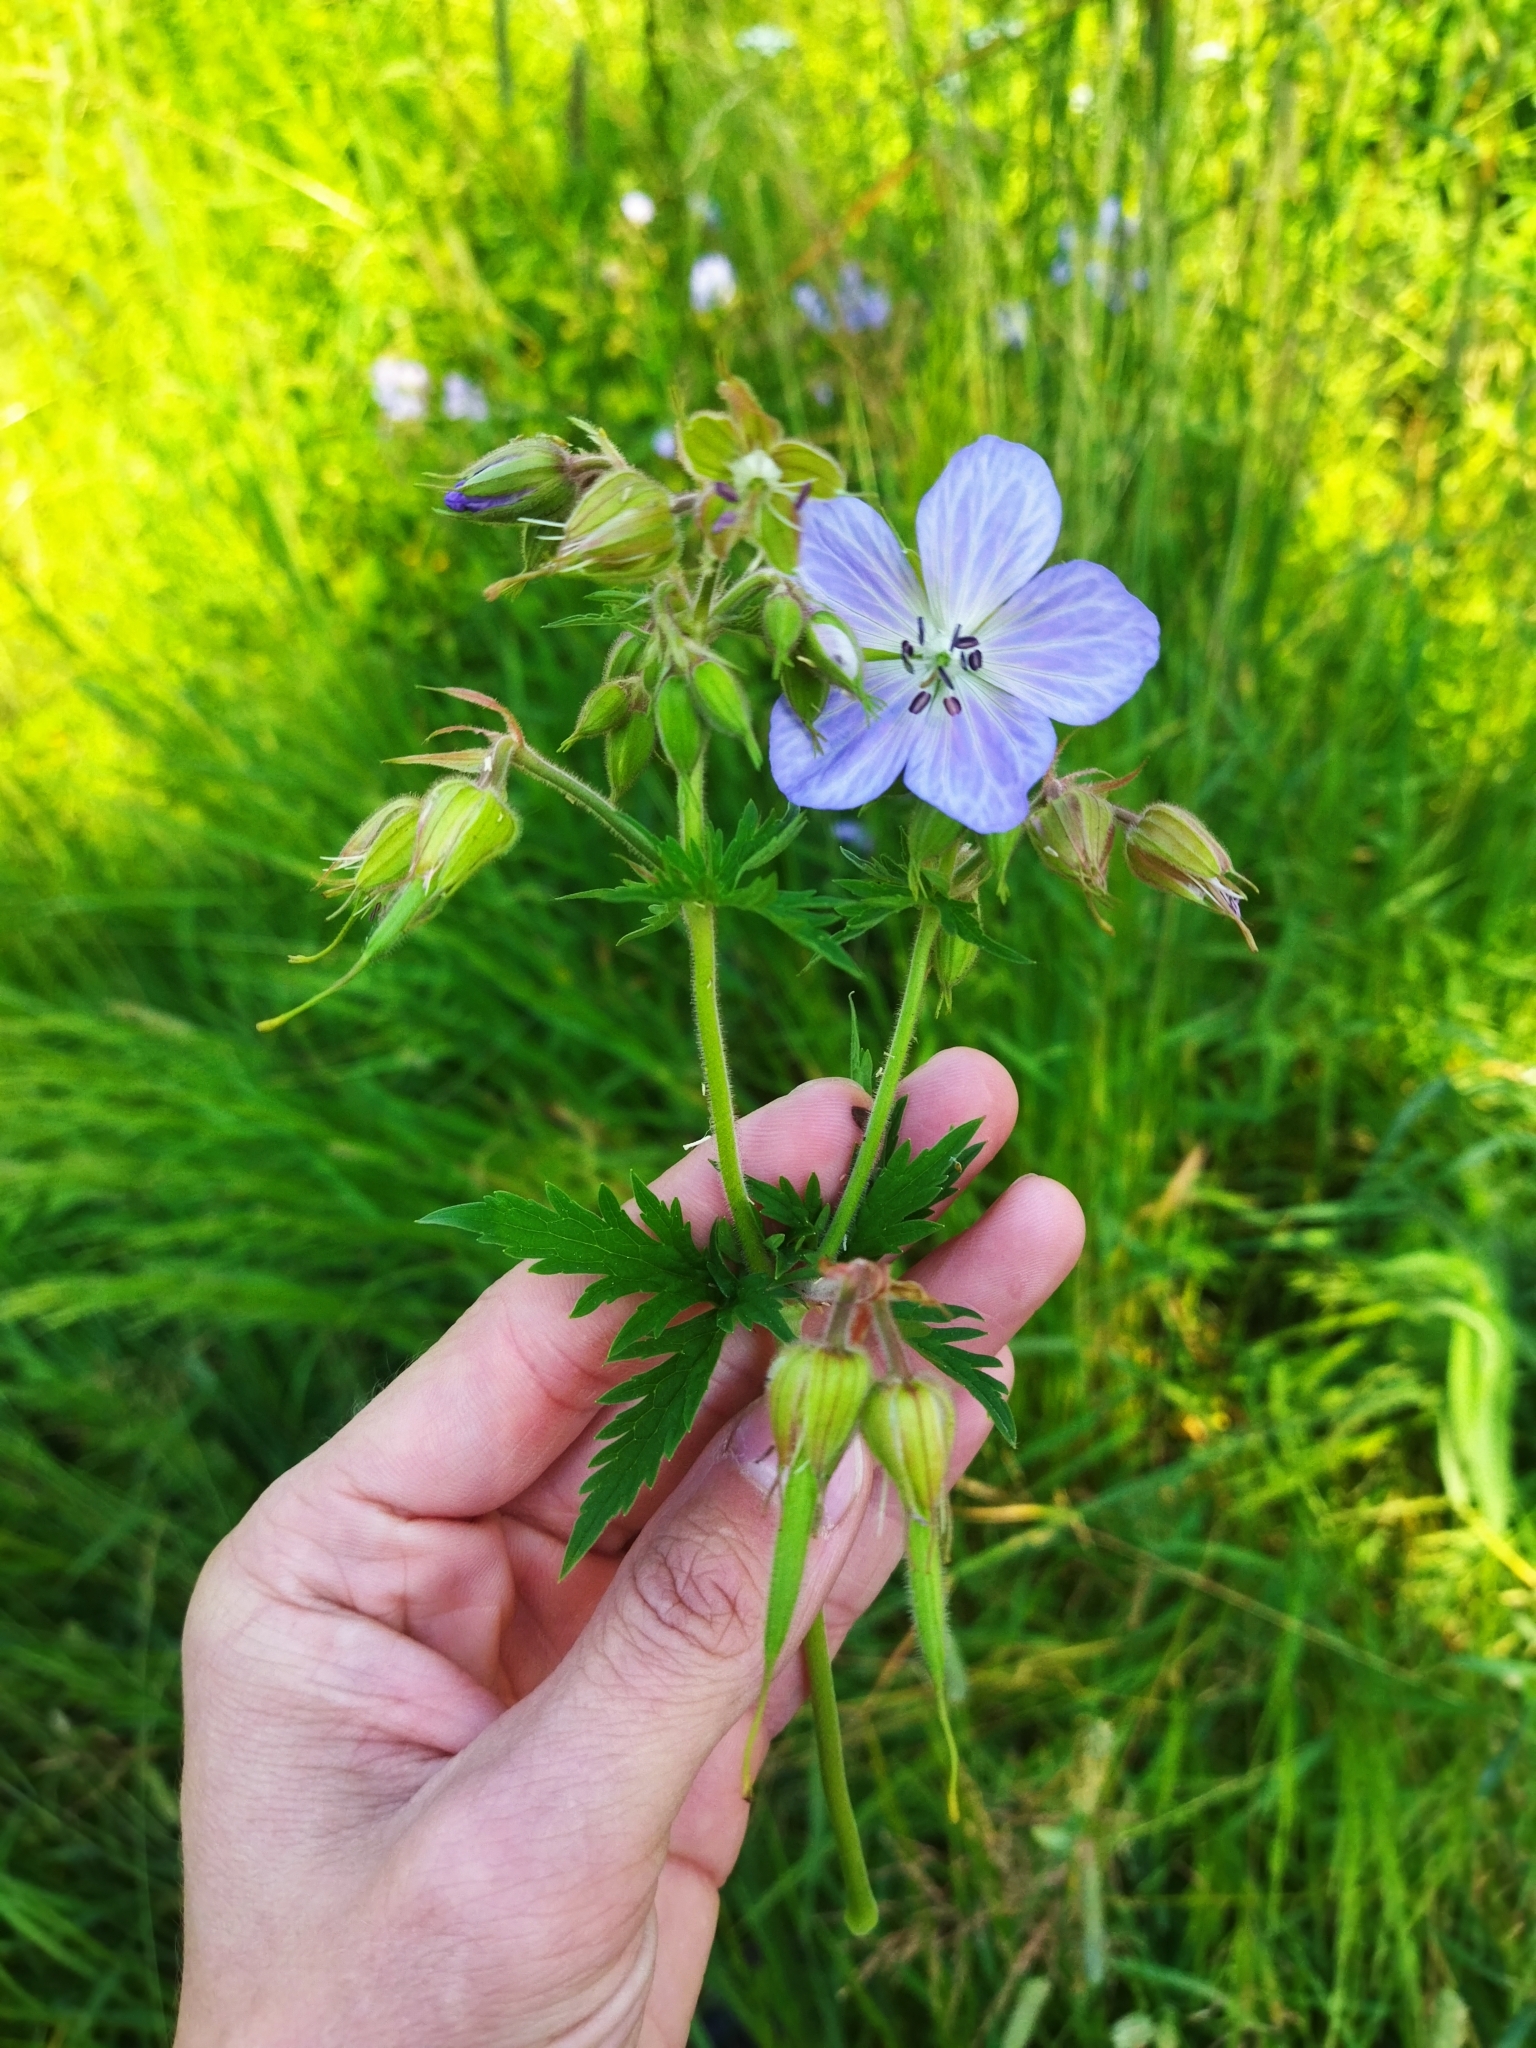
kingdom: Plantae
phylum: Tracheophyta
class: Magnoliopsida
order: Geraniales
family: Geraniaceae
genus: Geranium
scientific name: Geranium pratense
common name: Meadow crane's-bill
